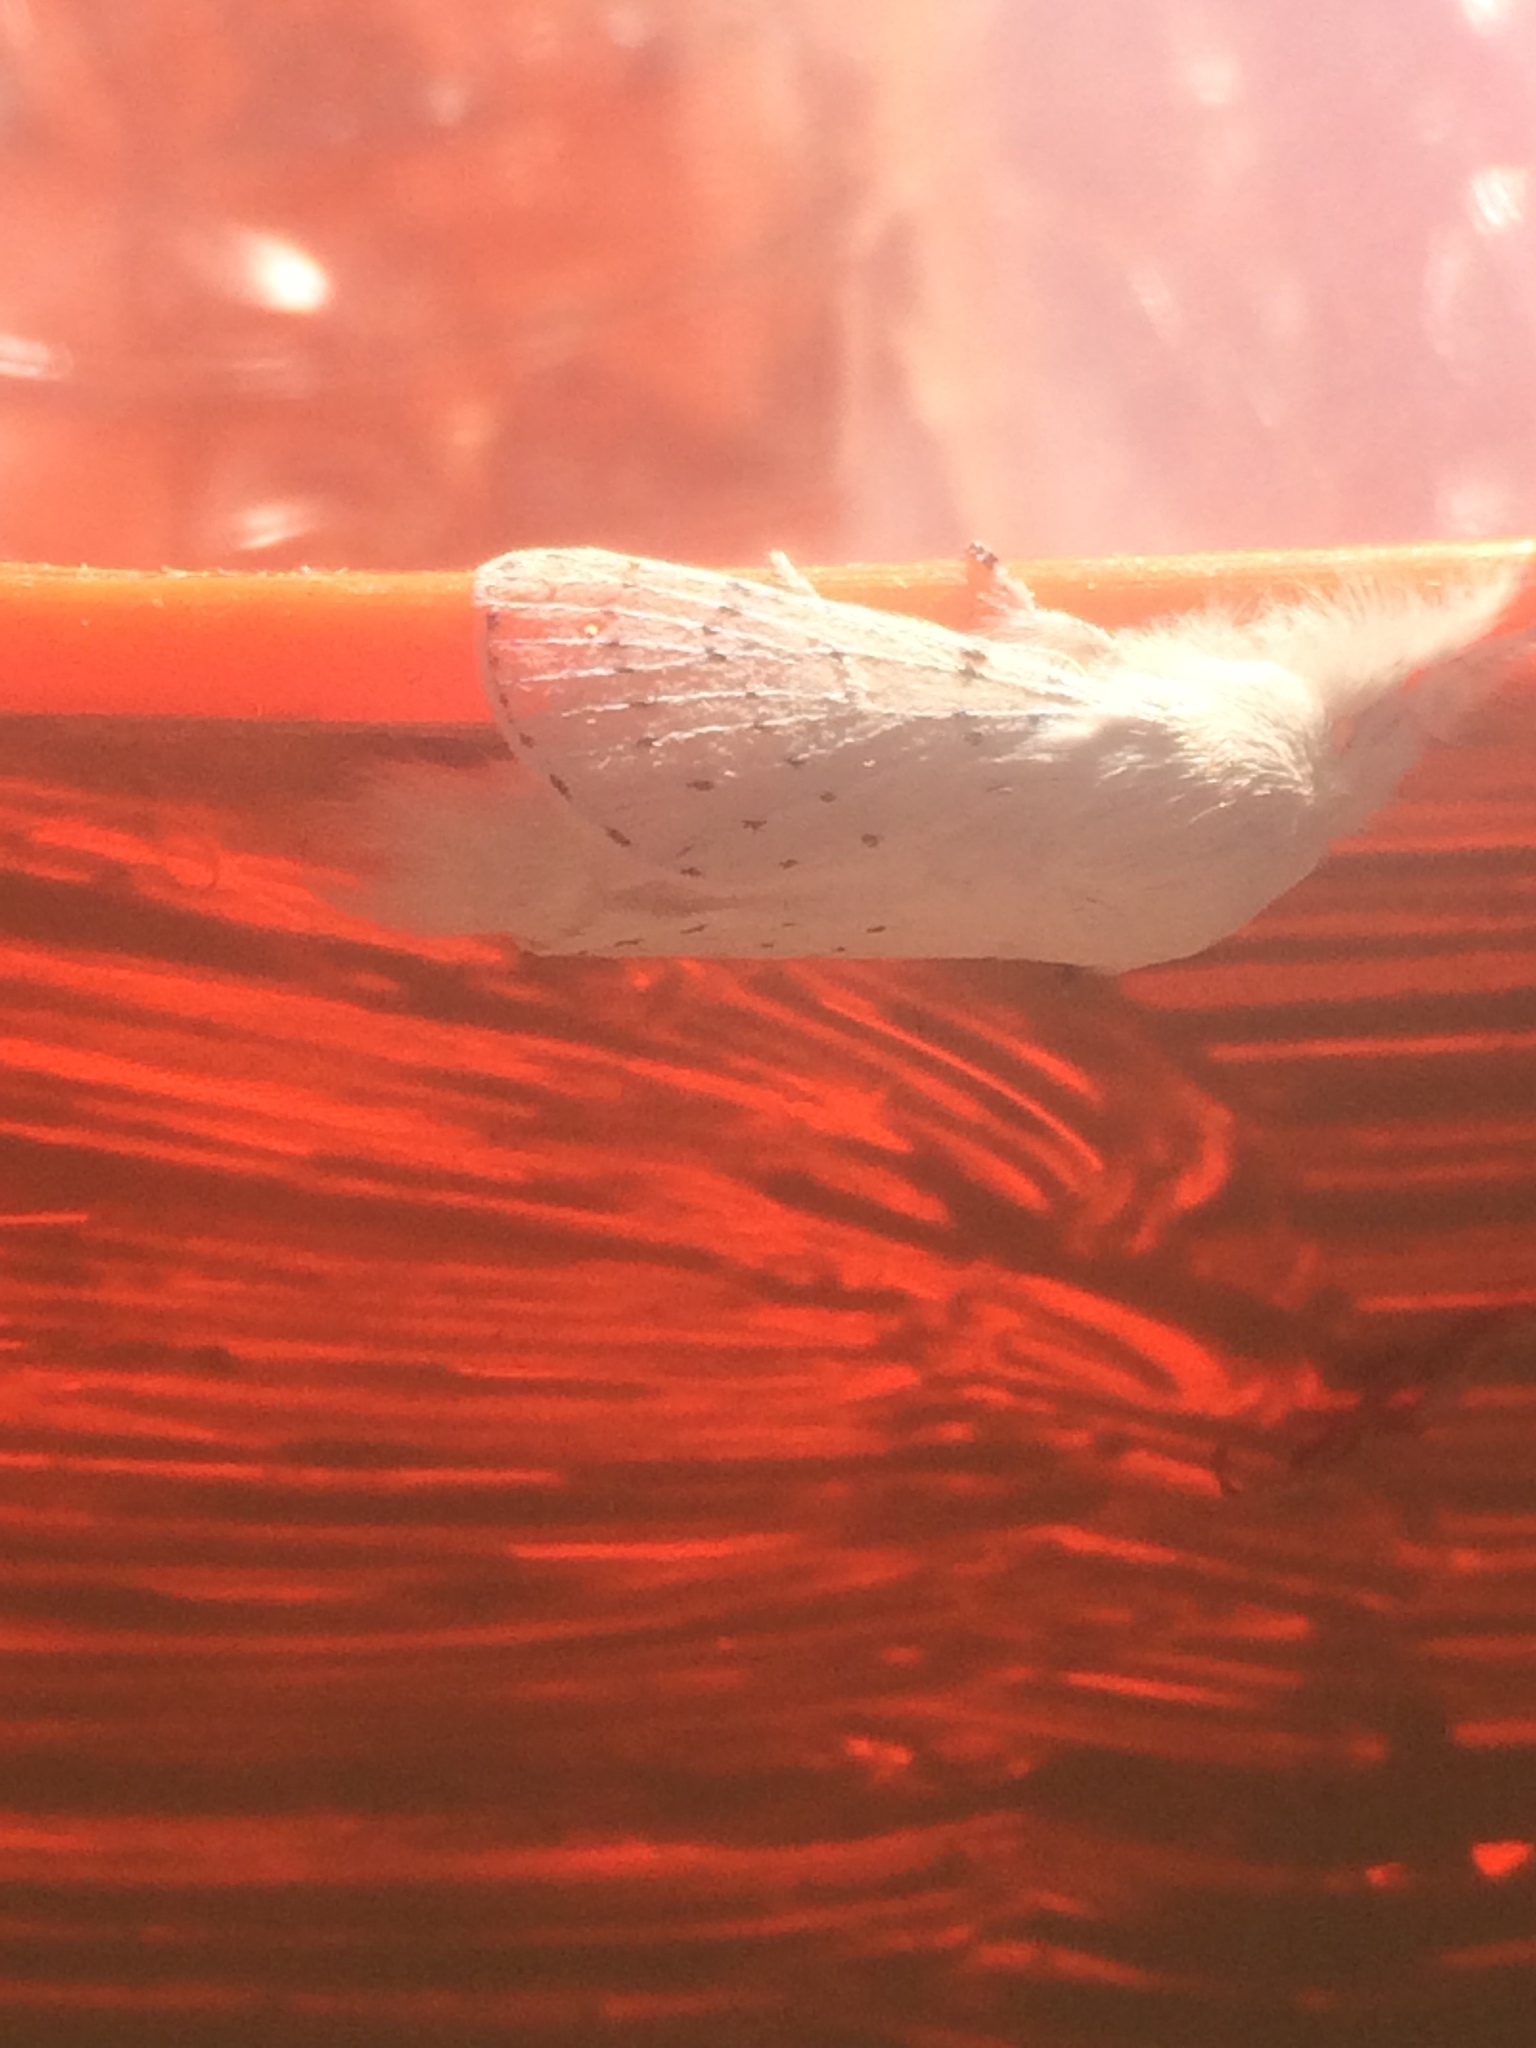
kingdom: Animalia
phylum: Arthropoda
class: Insecta
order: Lepidoptera
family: Lasiocampidae
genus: Artace
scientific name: Artace cribrarius
